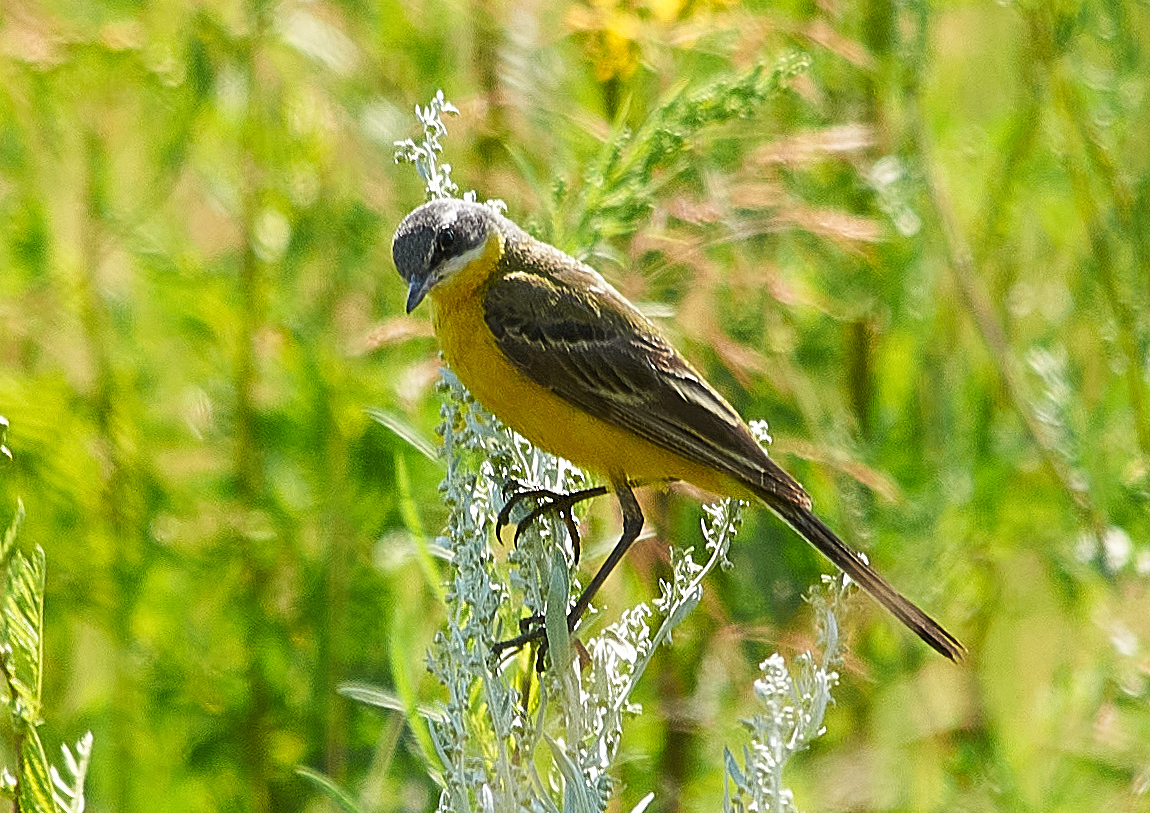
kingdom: Animalia
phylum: Chordata
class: Aves
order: Passeriformes
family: Motacillidae
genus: Motacilla
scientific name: Motacilla flava
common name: Western yellow wagtail
